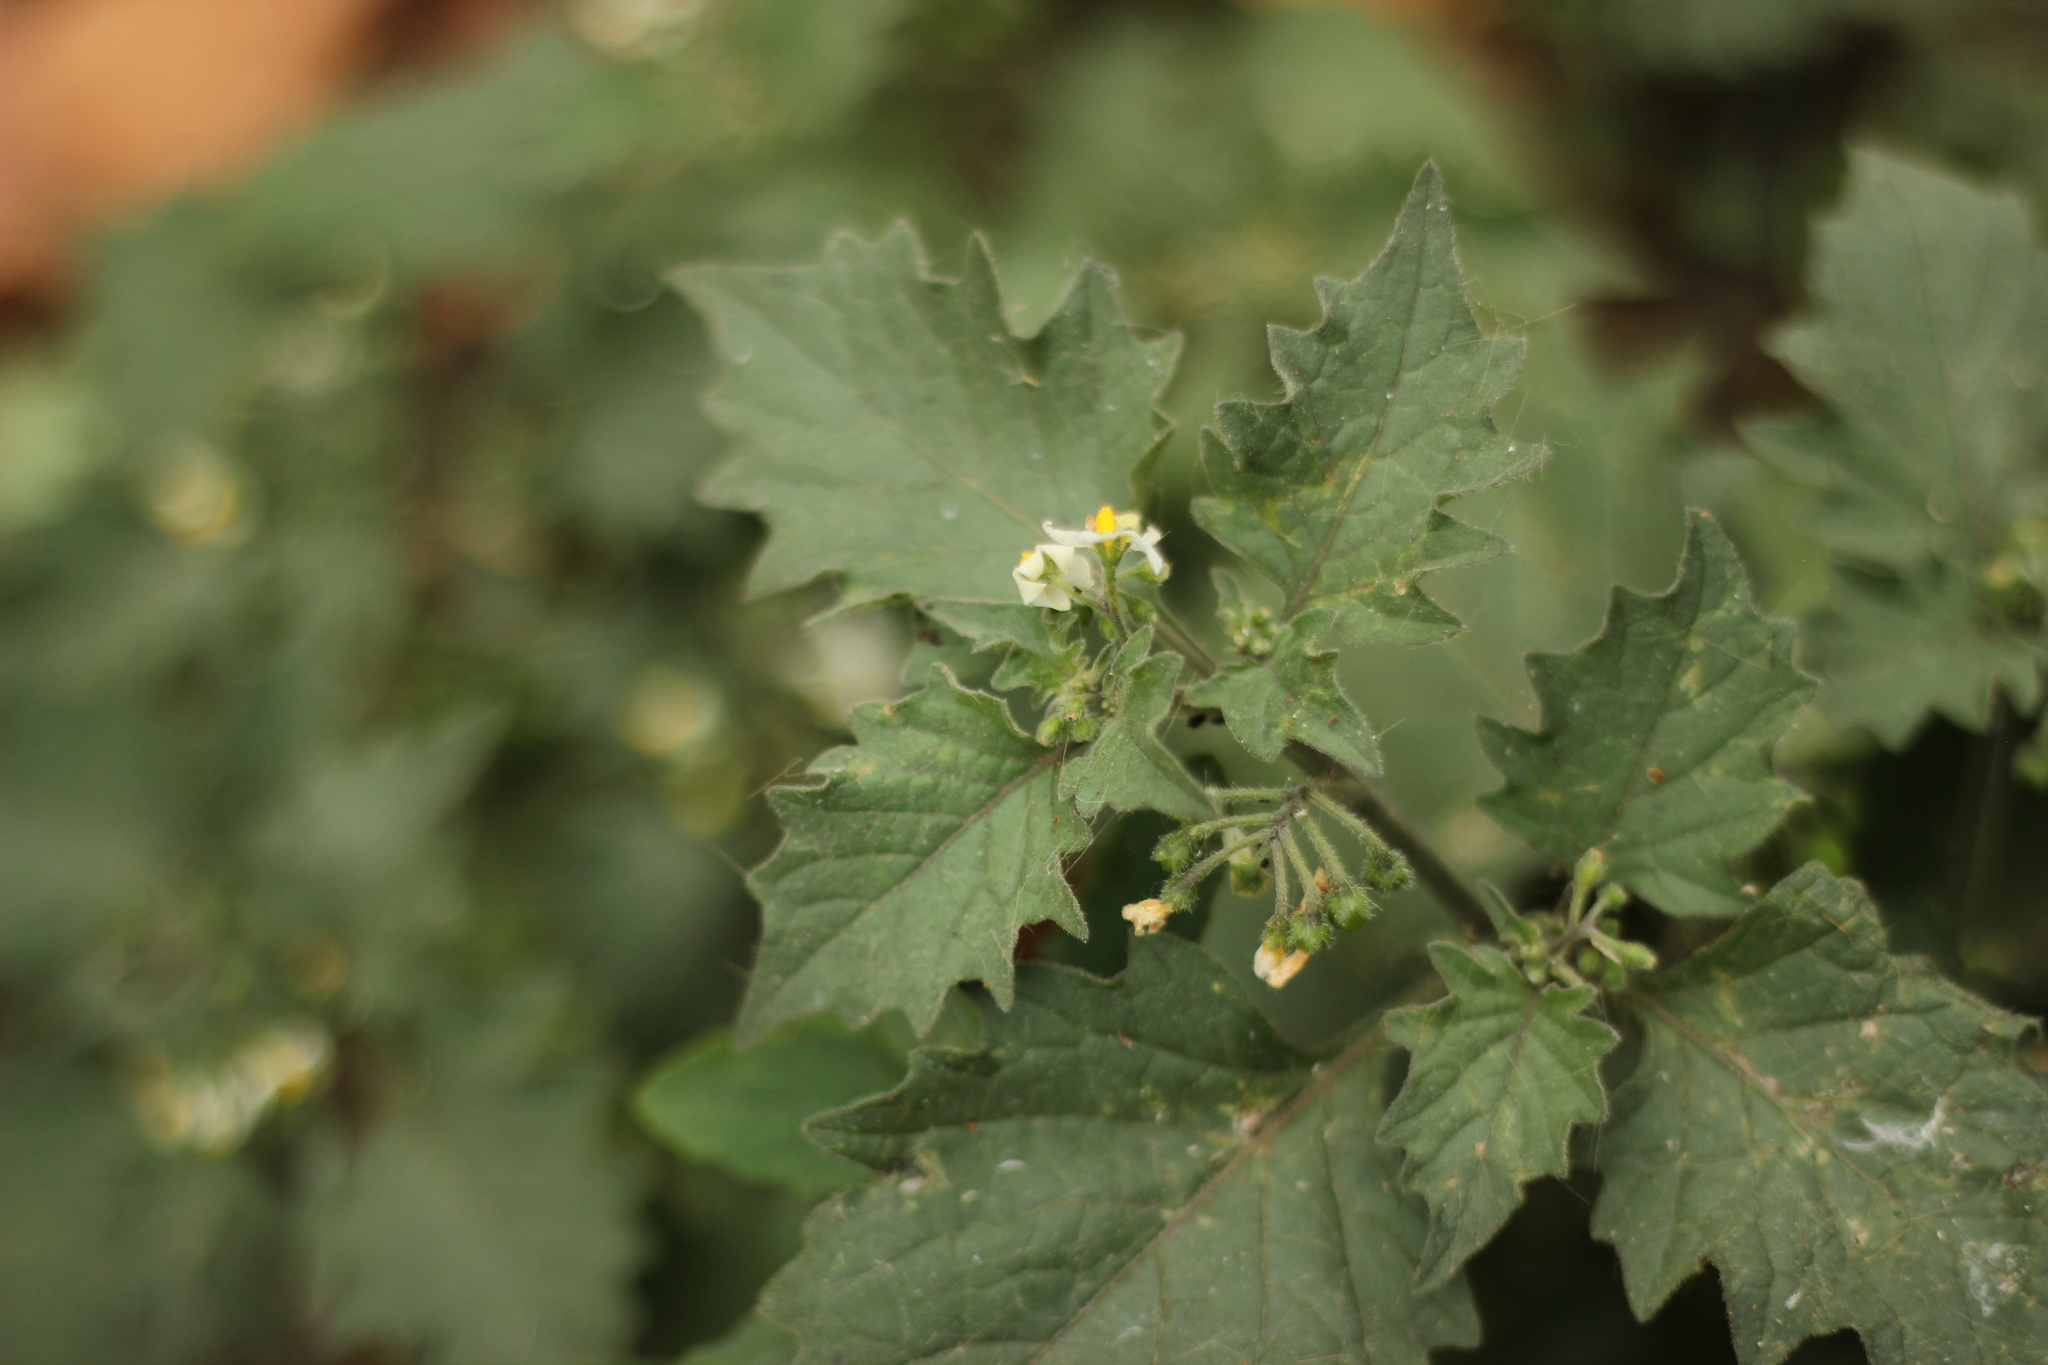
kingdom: Plantae
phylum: Tracheophyta
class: Magnoliopsida
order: Solanales
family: Solanaceae
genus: Solanum
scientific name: Solanum nigrum
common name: Black nightshade
